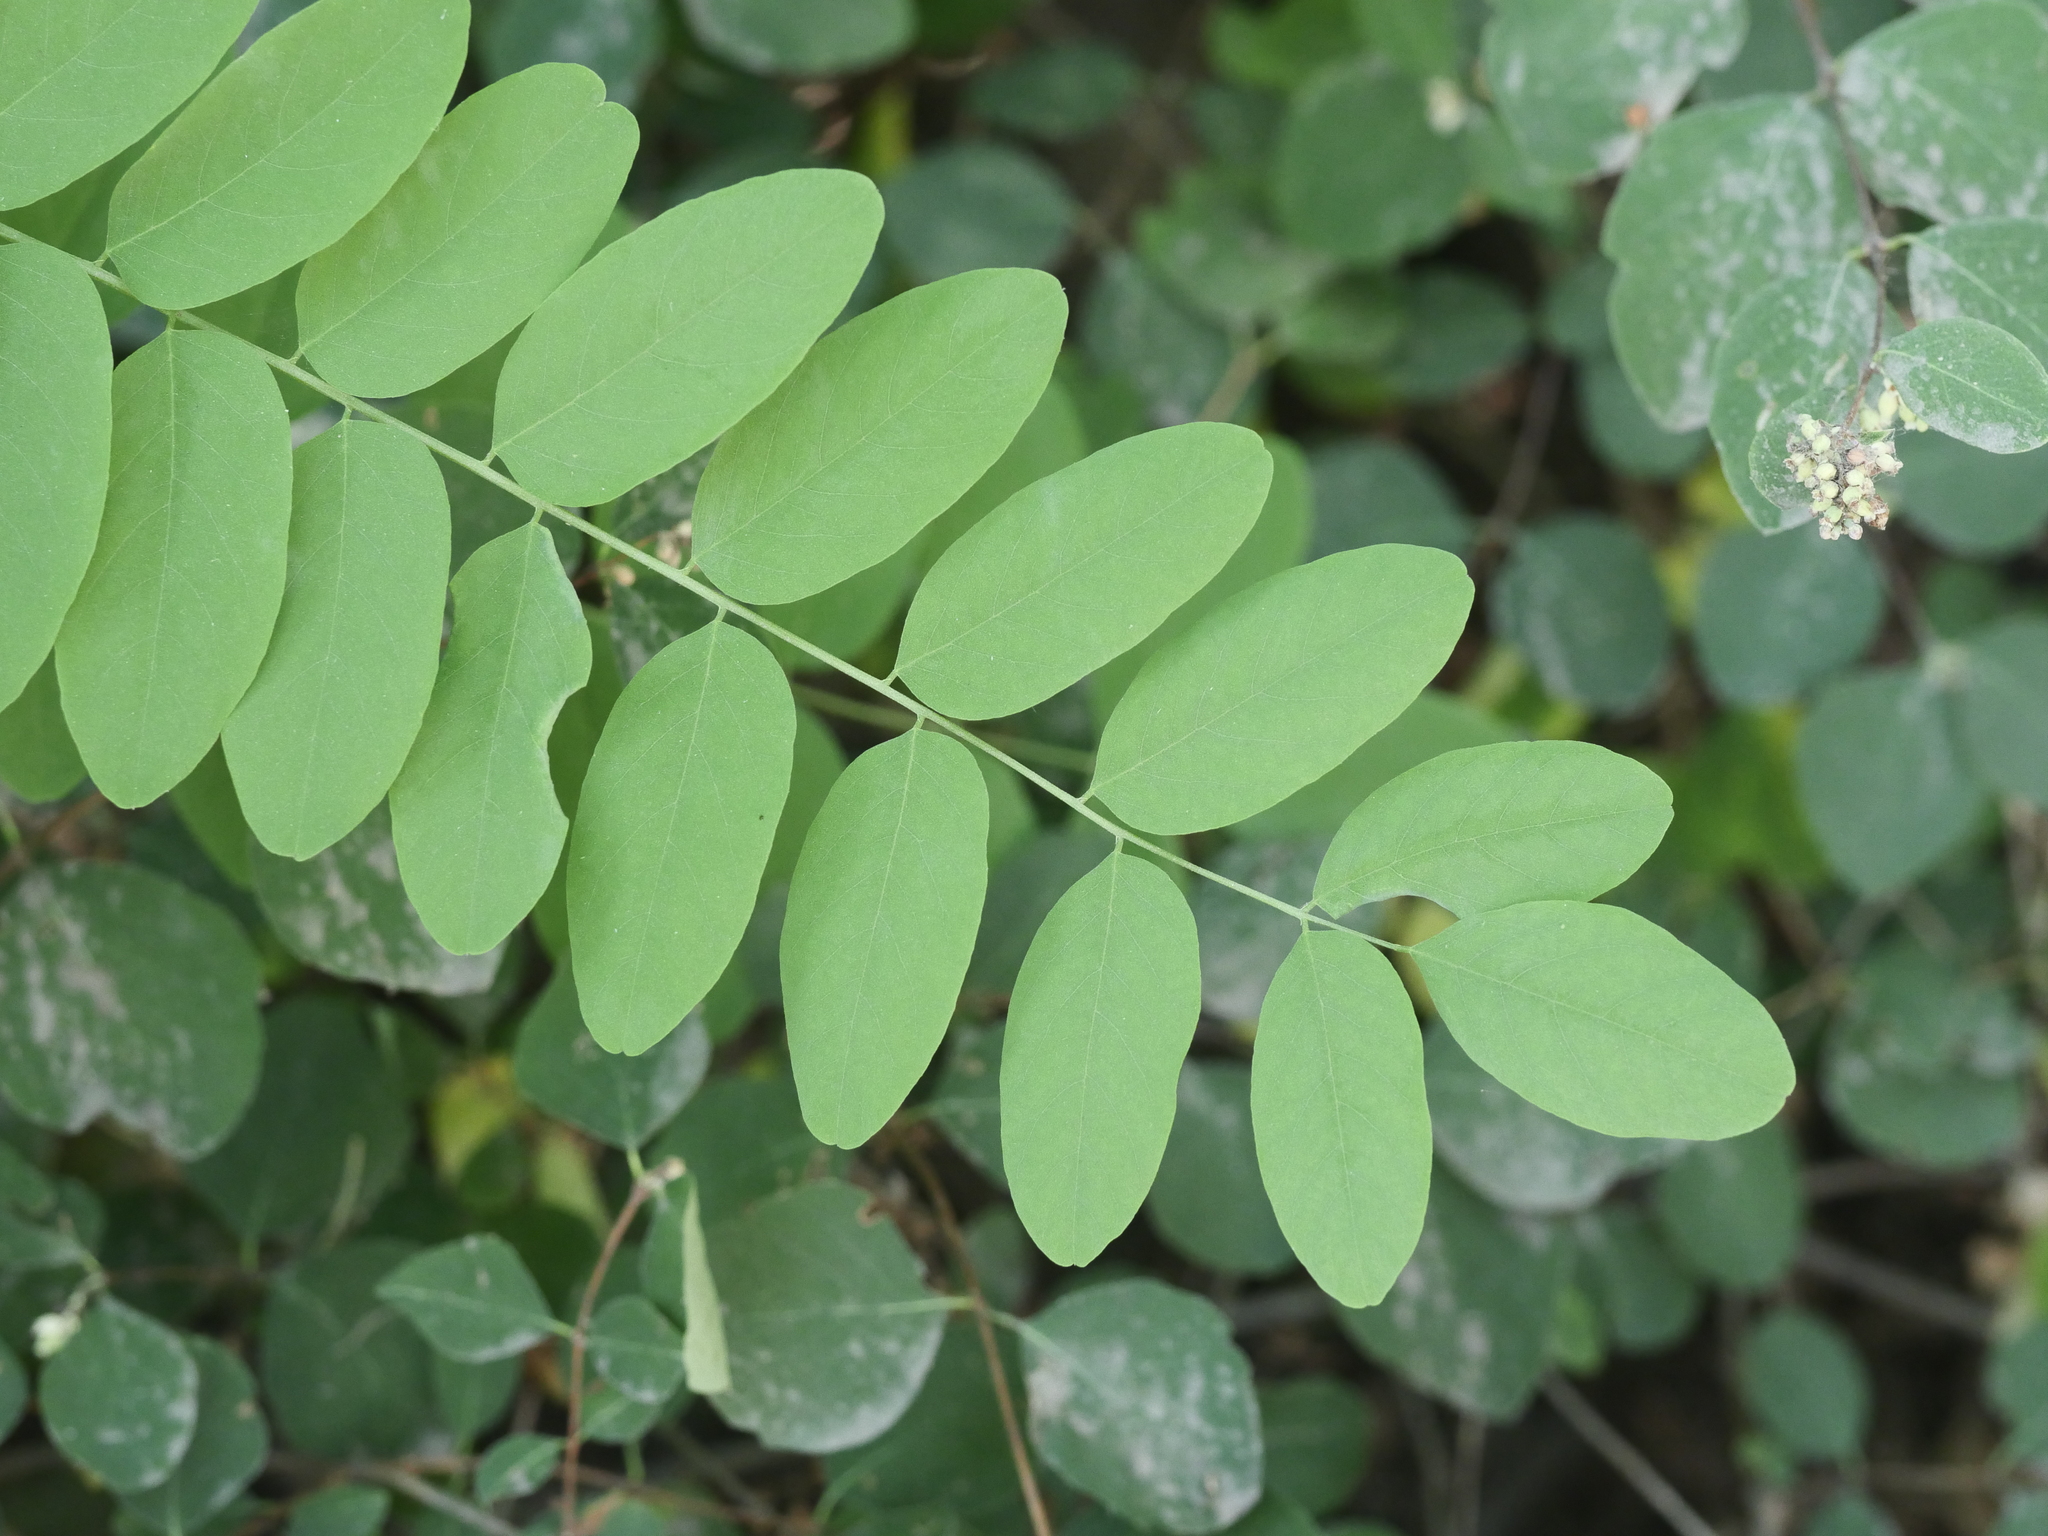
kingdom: Plantae
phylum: Tracheophyta
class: Magnoliopsida
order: Fabales
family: Fabaceae
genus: Robinia
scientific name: Robinia pseudoacacia
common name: Black locust
